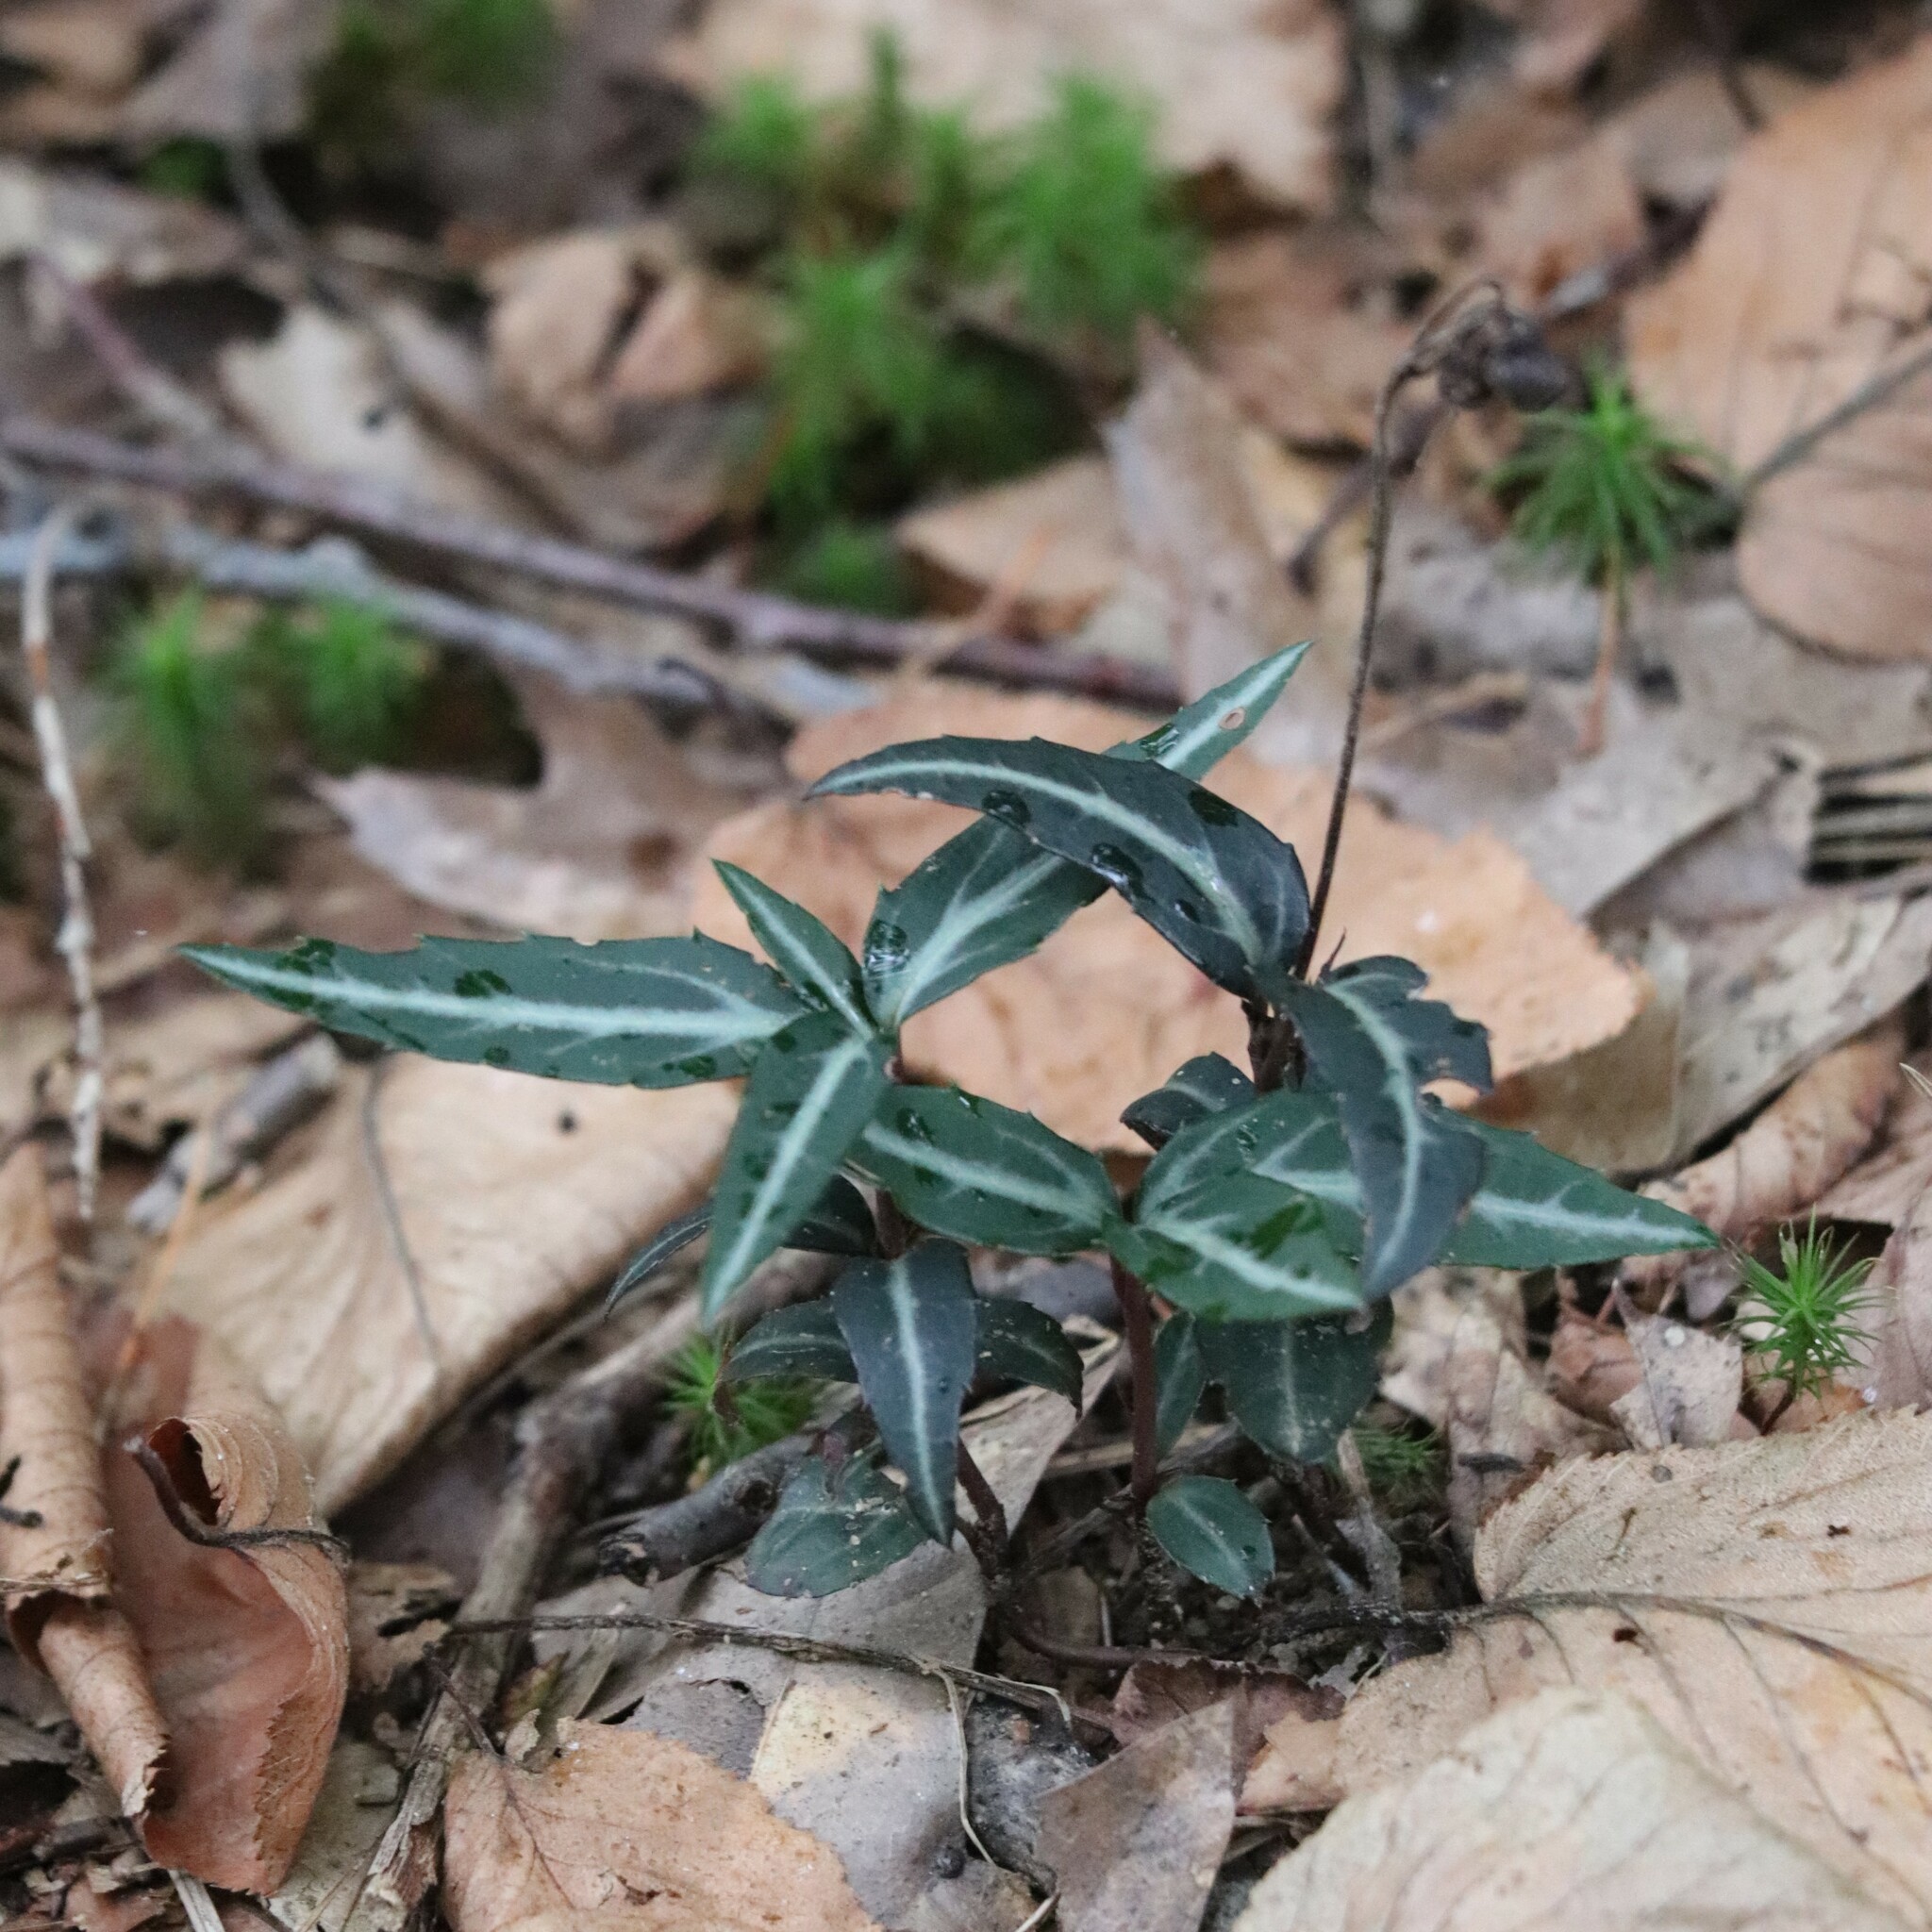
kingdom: Plantae
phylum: Tracheophyta
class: Magnoliopsida
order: Ericales
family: Ericaceae
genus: Chimaphila
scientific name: Chimaphila maculata
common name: Spotted pipsissewa
